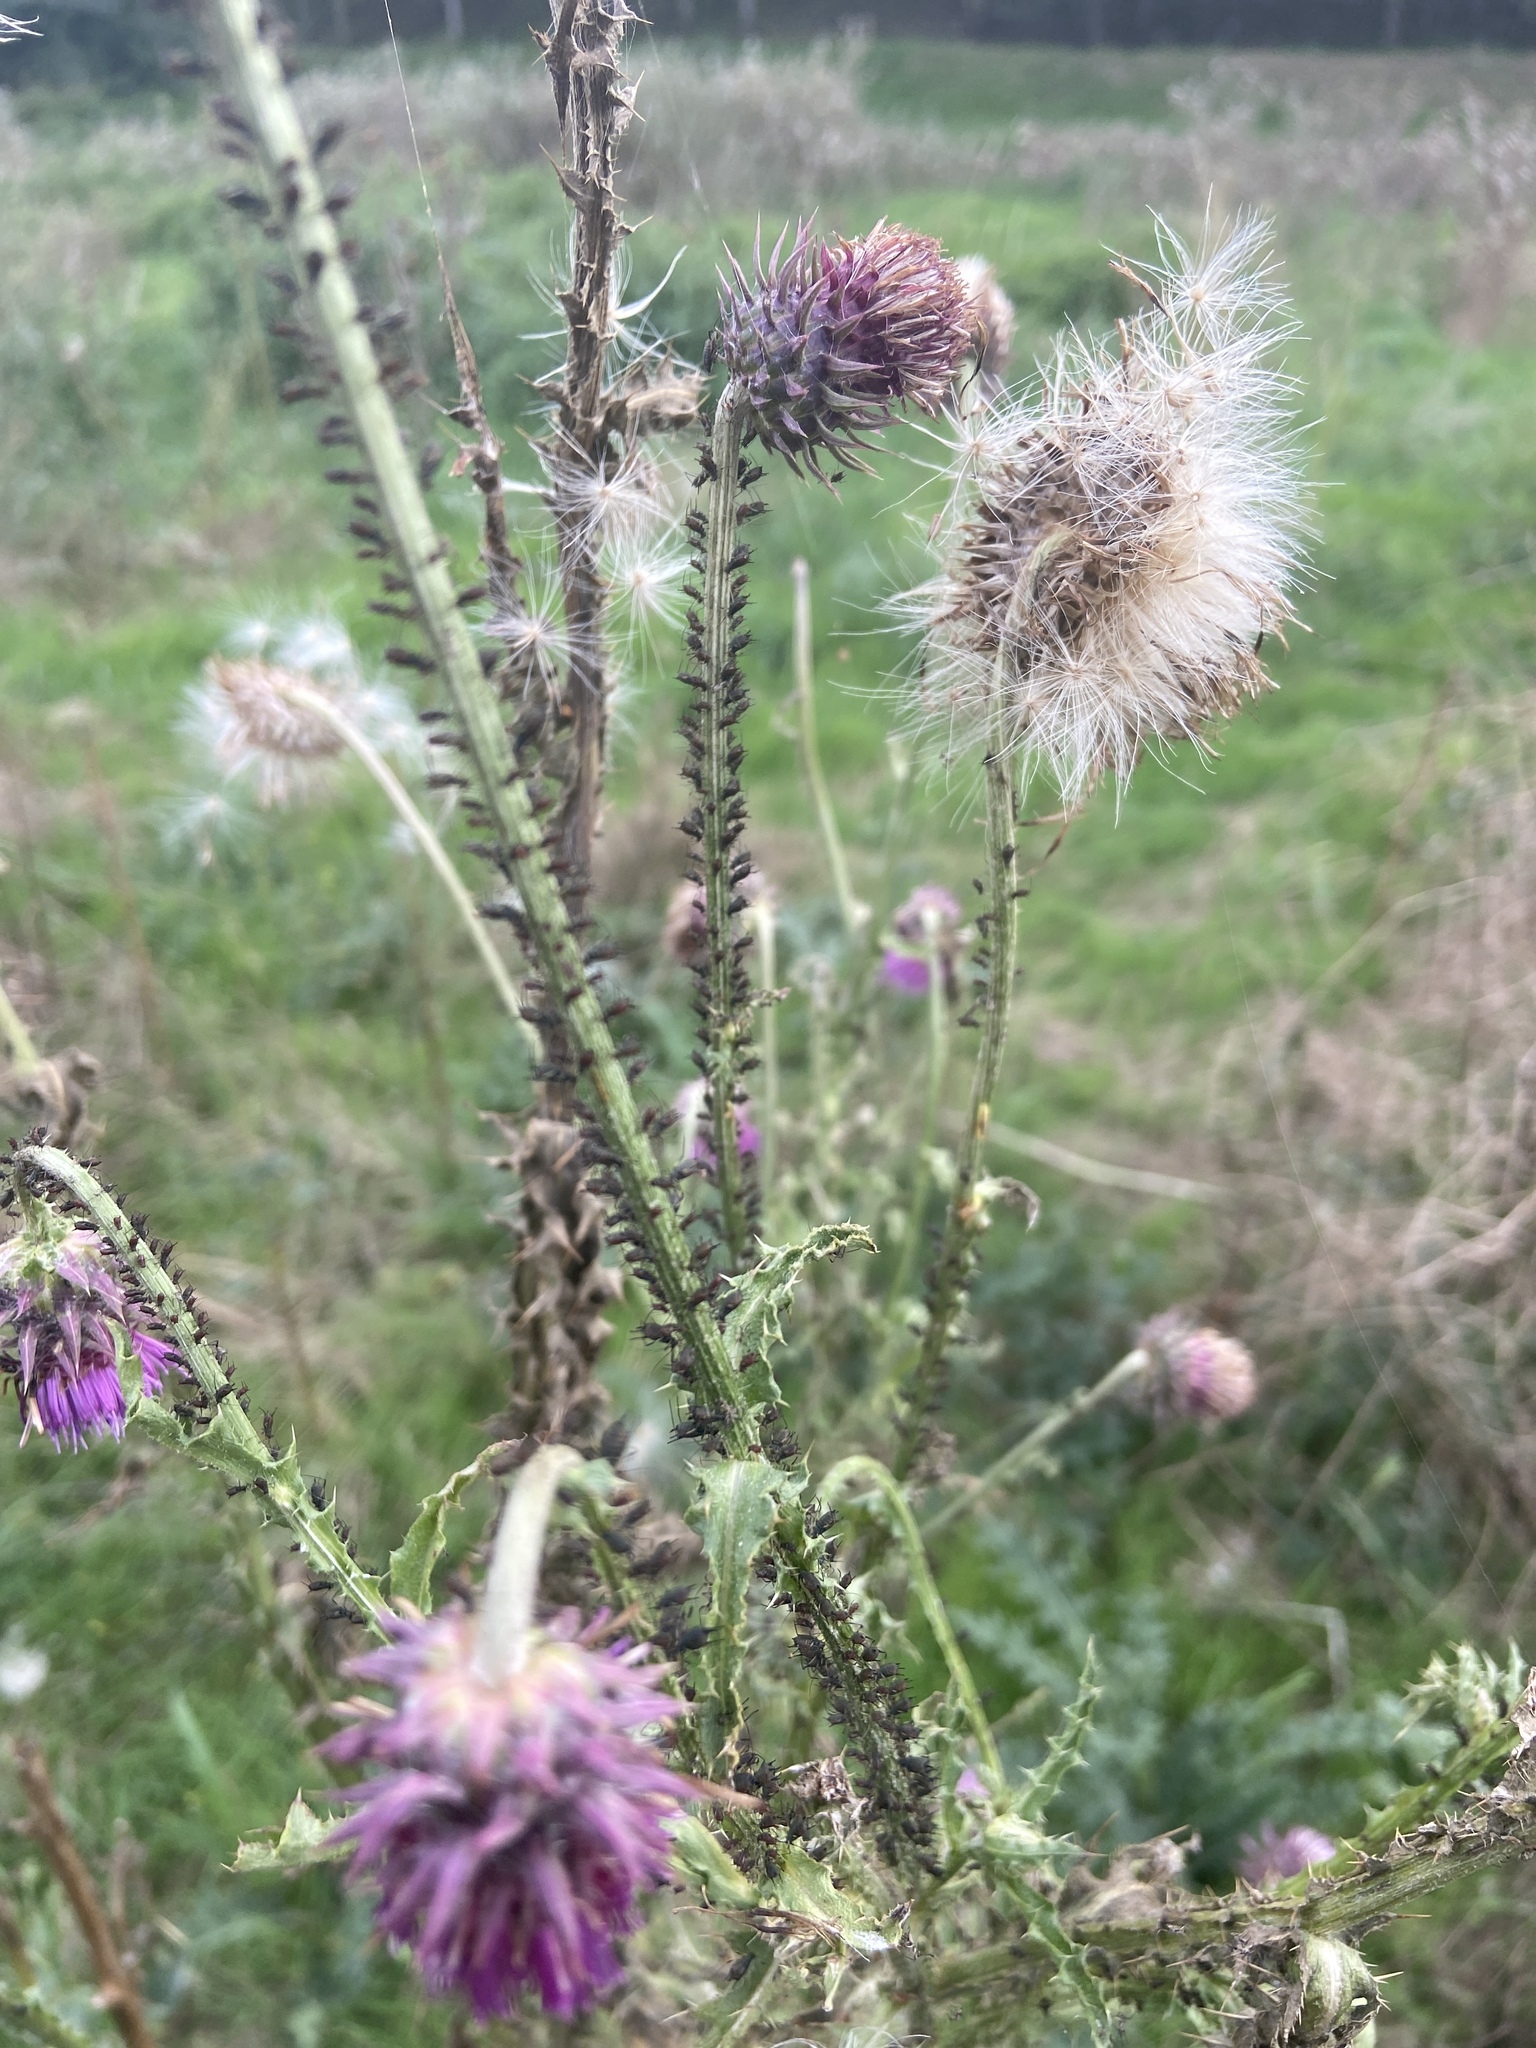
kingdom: Plantae
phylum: Tracheophyta
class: Magnoliopsida
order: Asterales
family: Asteraceae
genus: Carduus
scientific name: Carduus nutans
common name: Musk thistle
